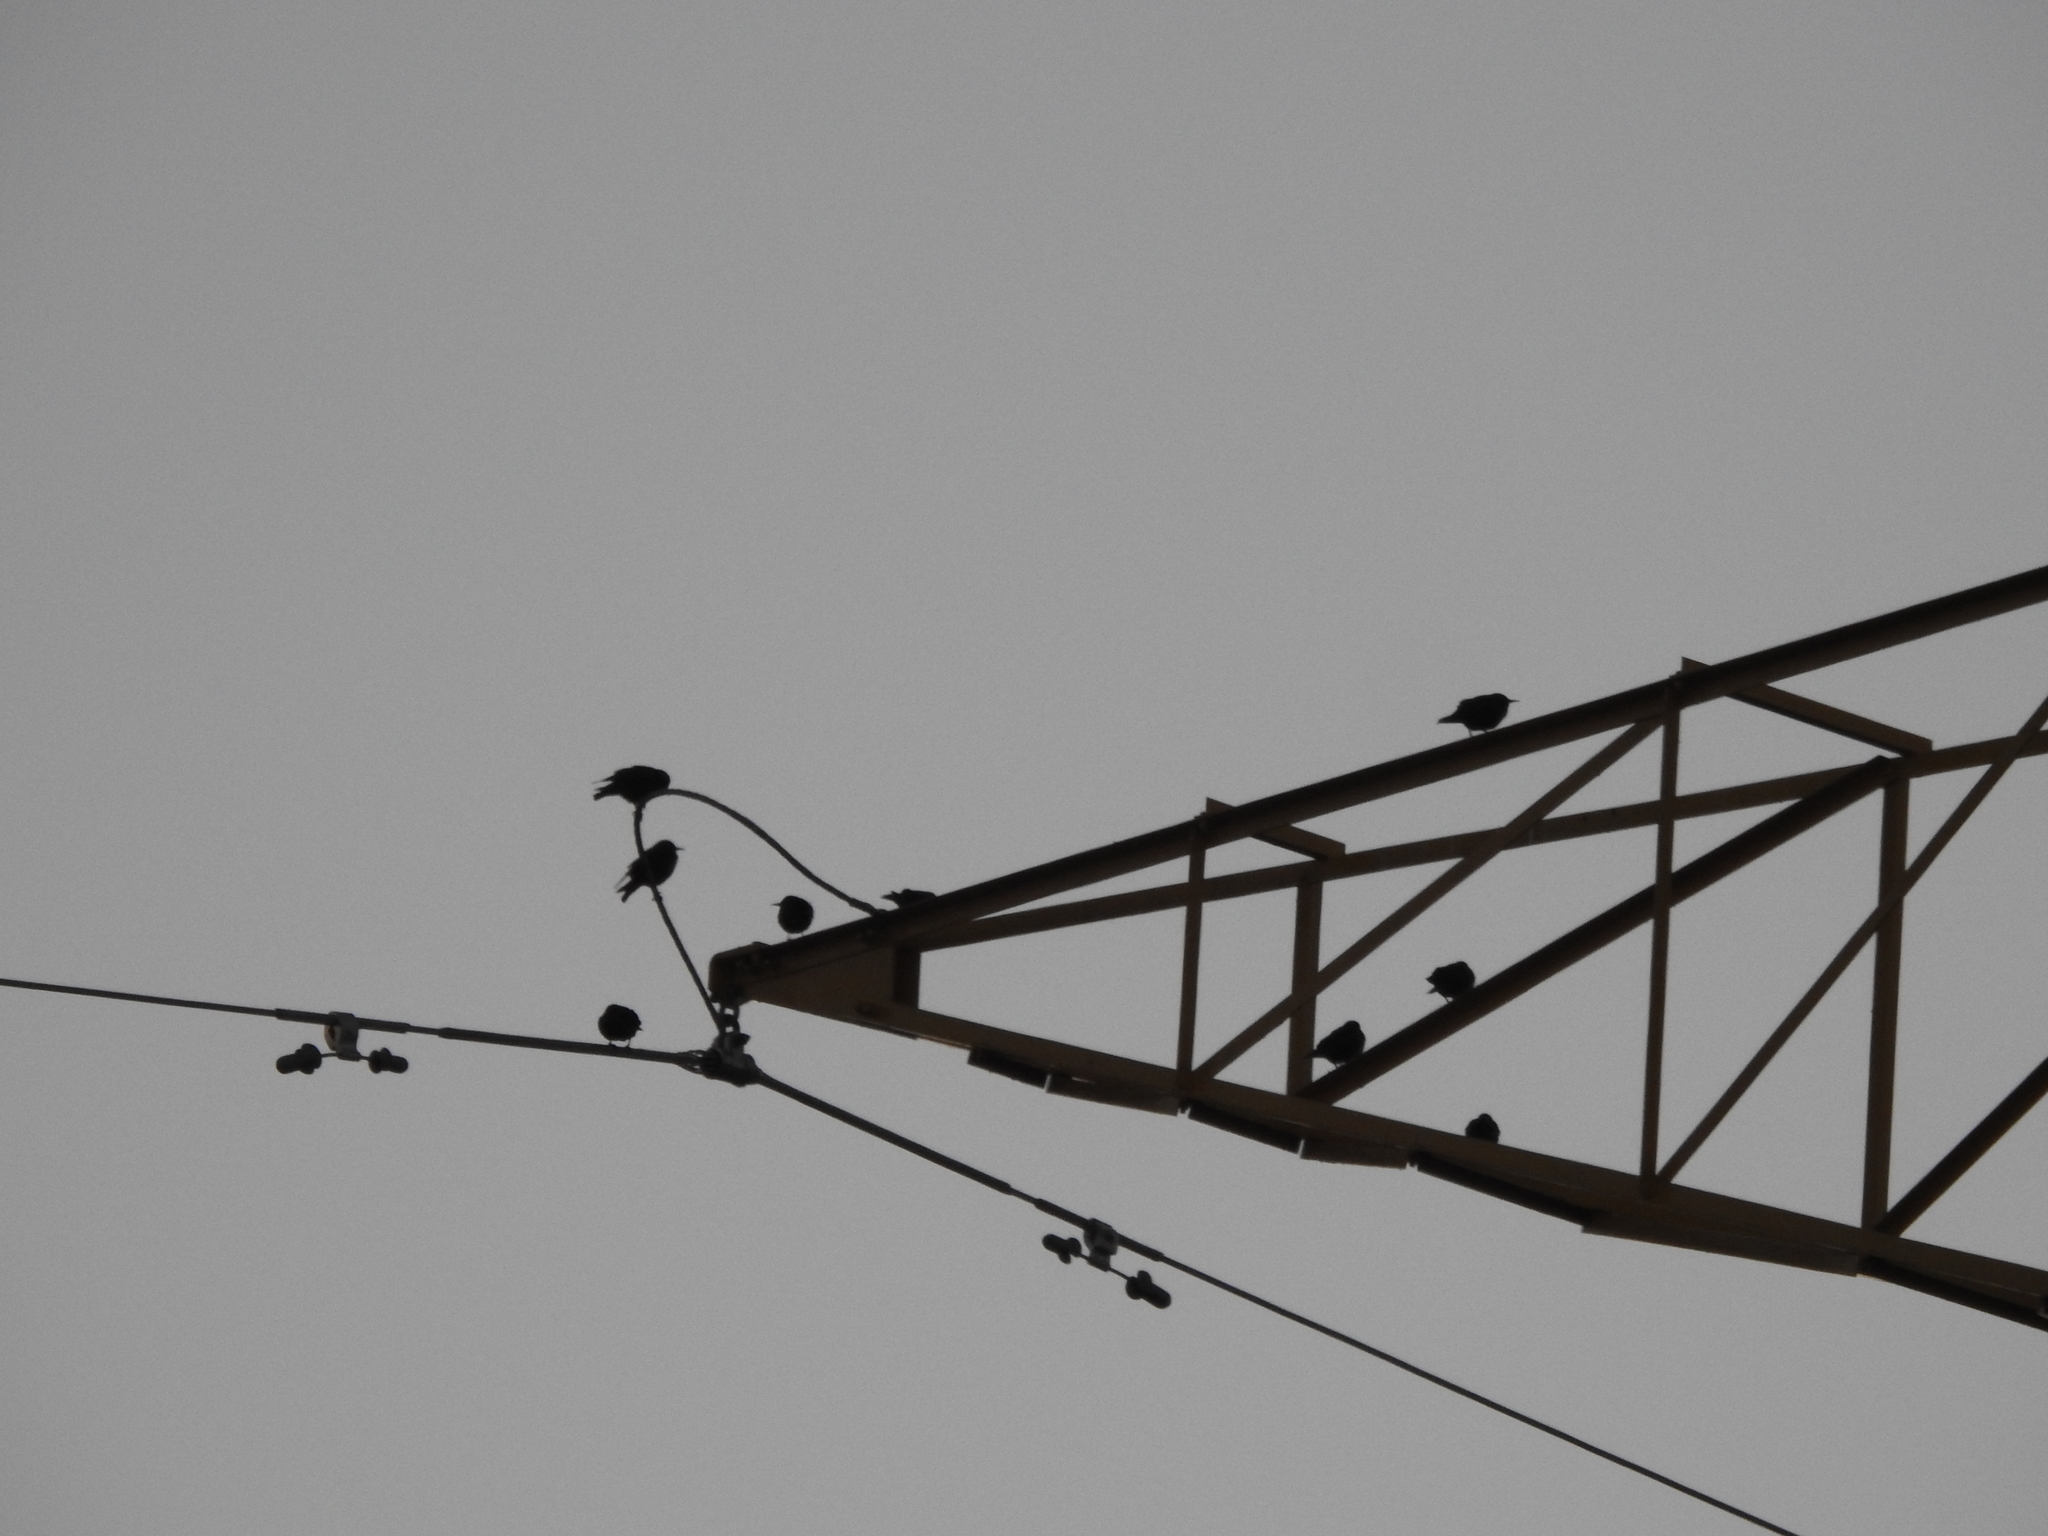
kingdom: Animalia
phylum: Chordata
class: Aves
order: Passeriformes
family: Sturnidae
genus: Sturnus
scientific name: Sturnus vulgaris
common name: Common starling
